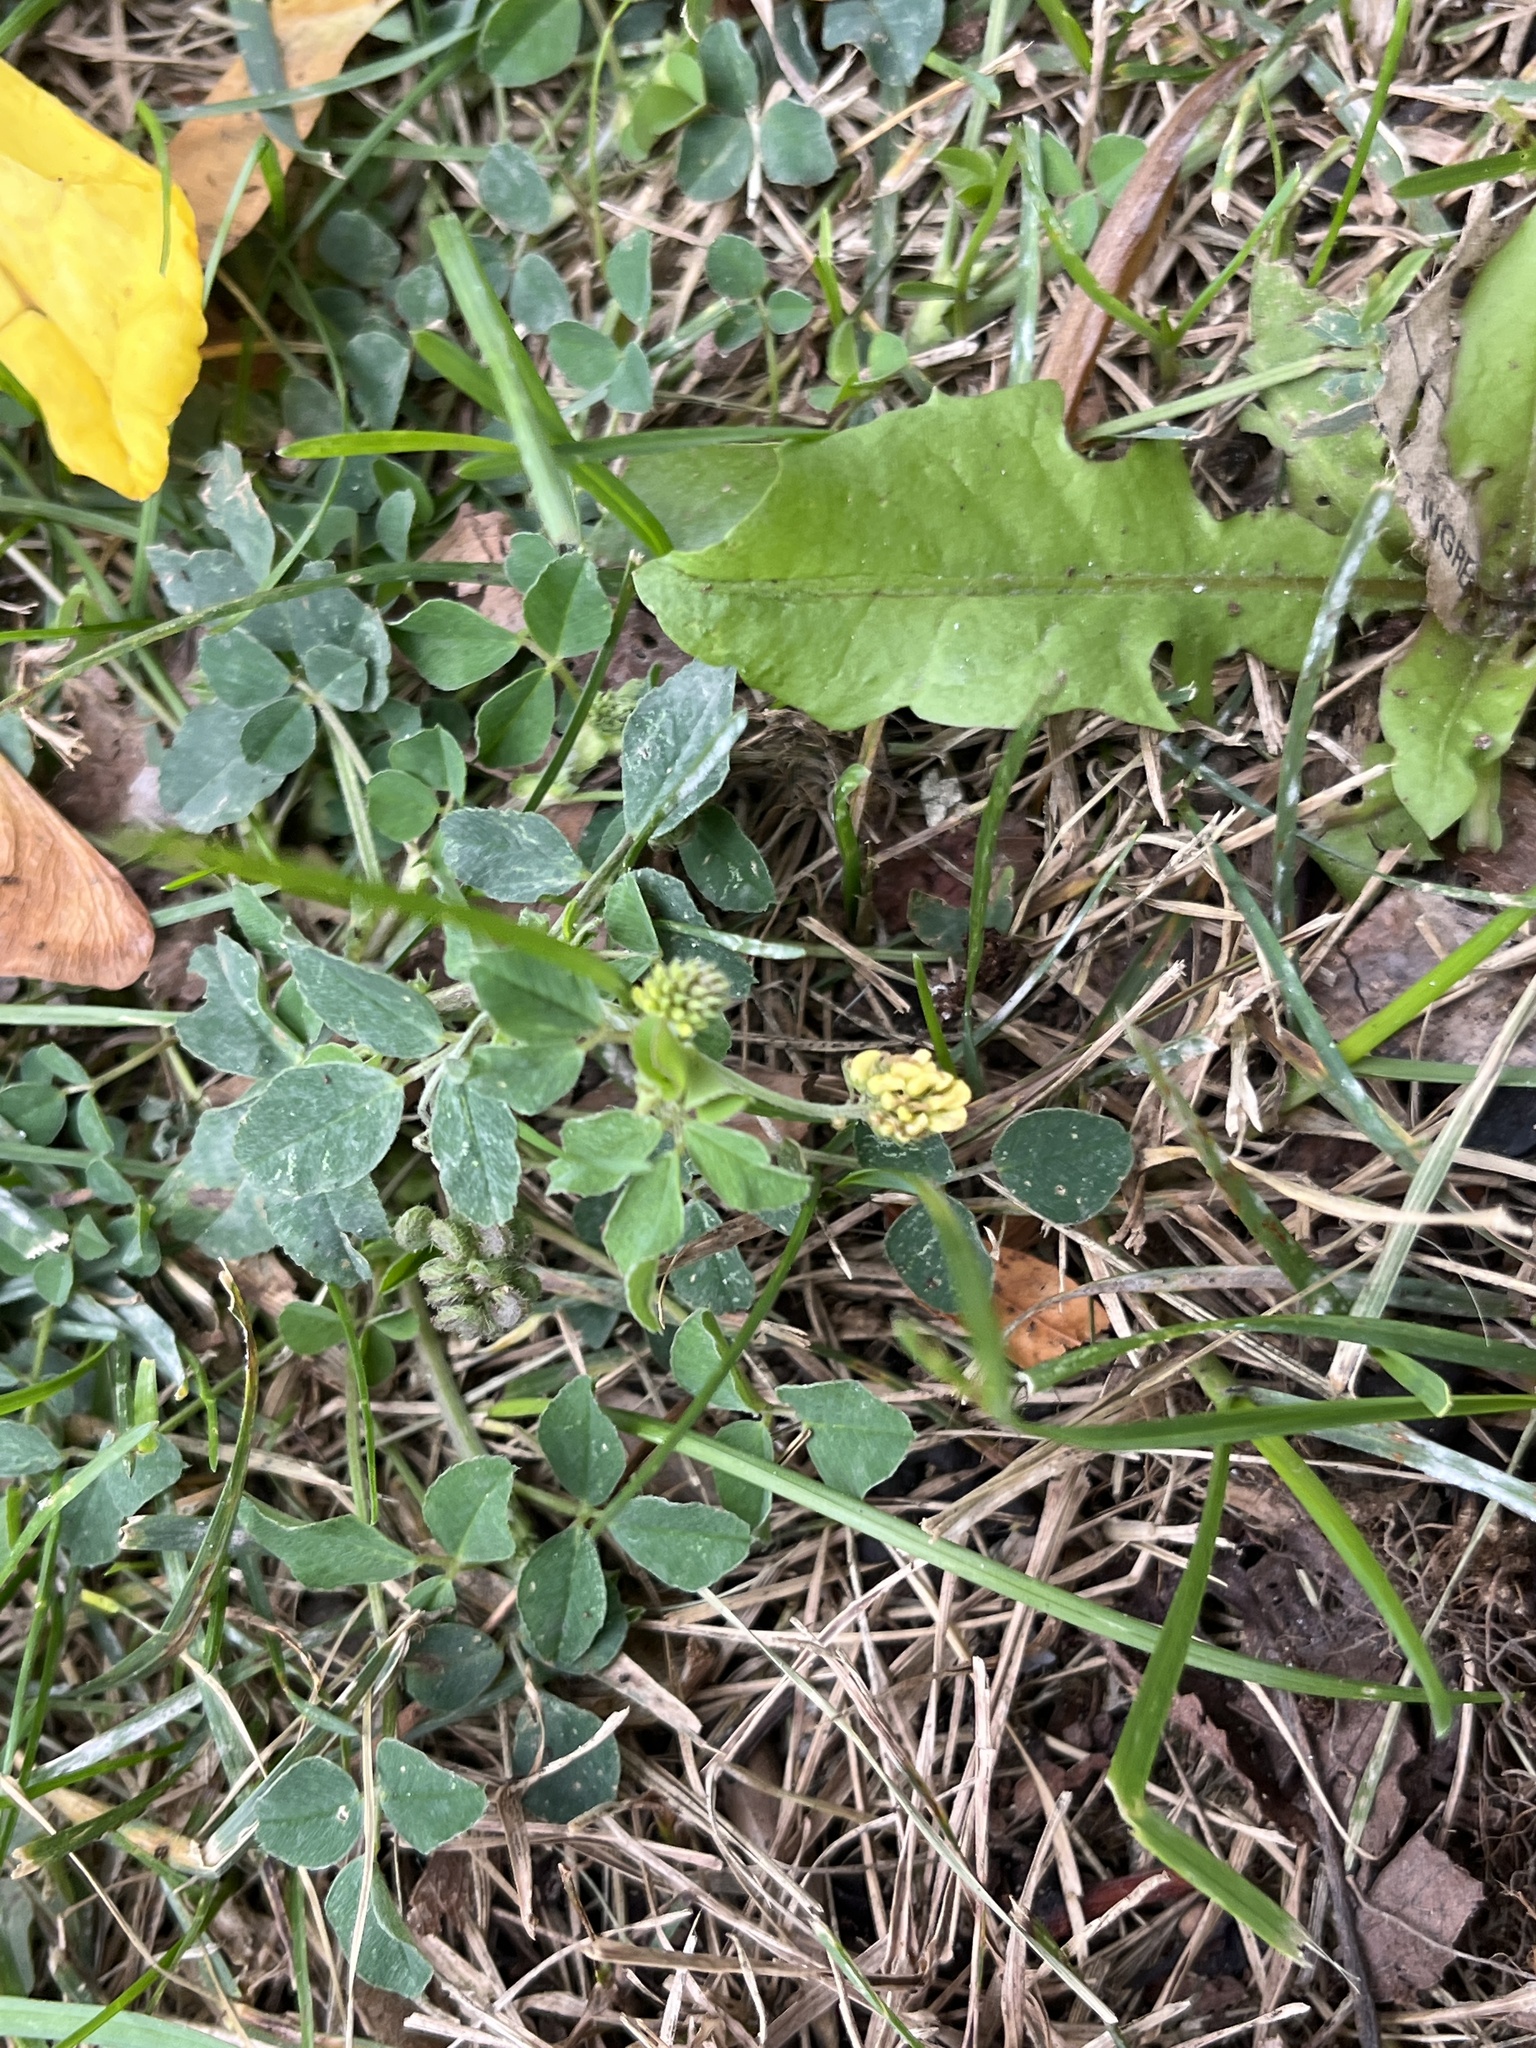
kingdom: Plantae
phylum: Tracheophyta
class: Magnoliopsida
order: Fabales
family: Fabaceae
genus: Medicago
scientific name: Medicago lupulina
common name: Black medick
